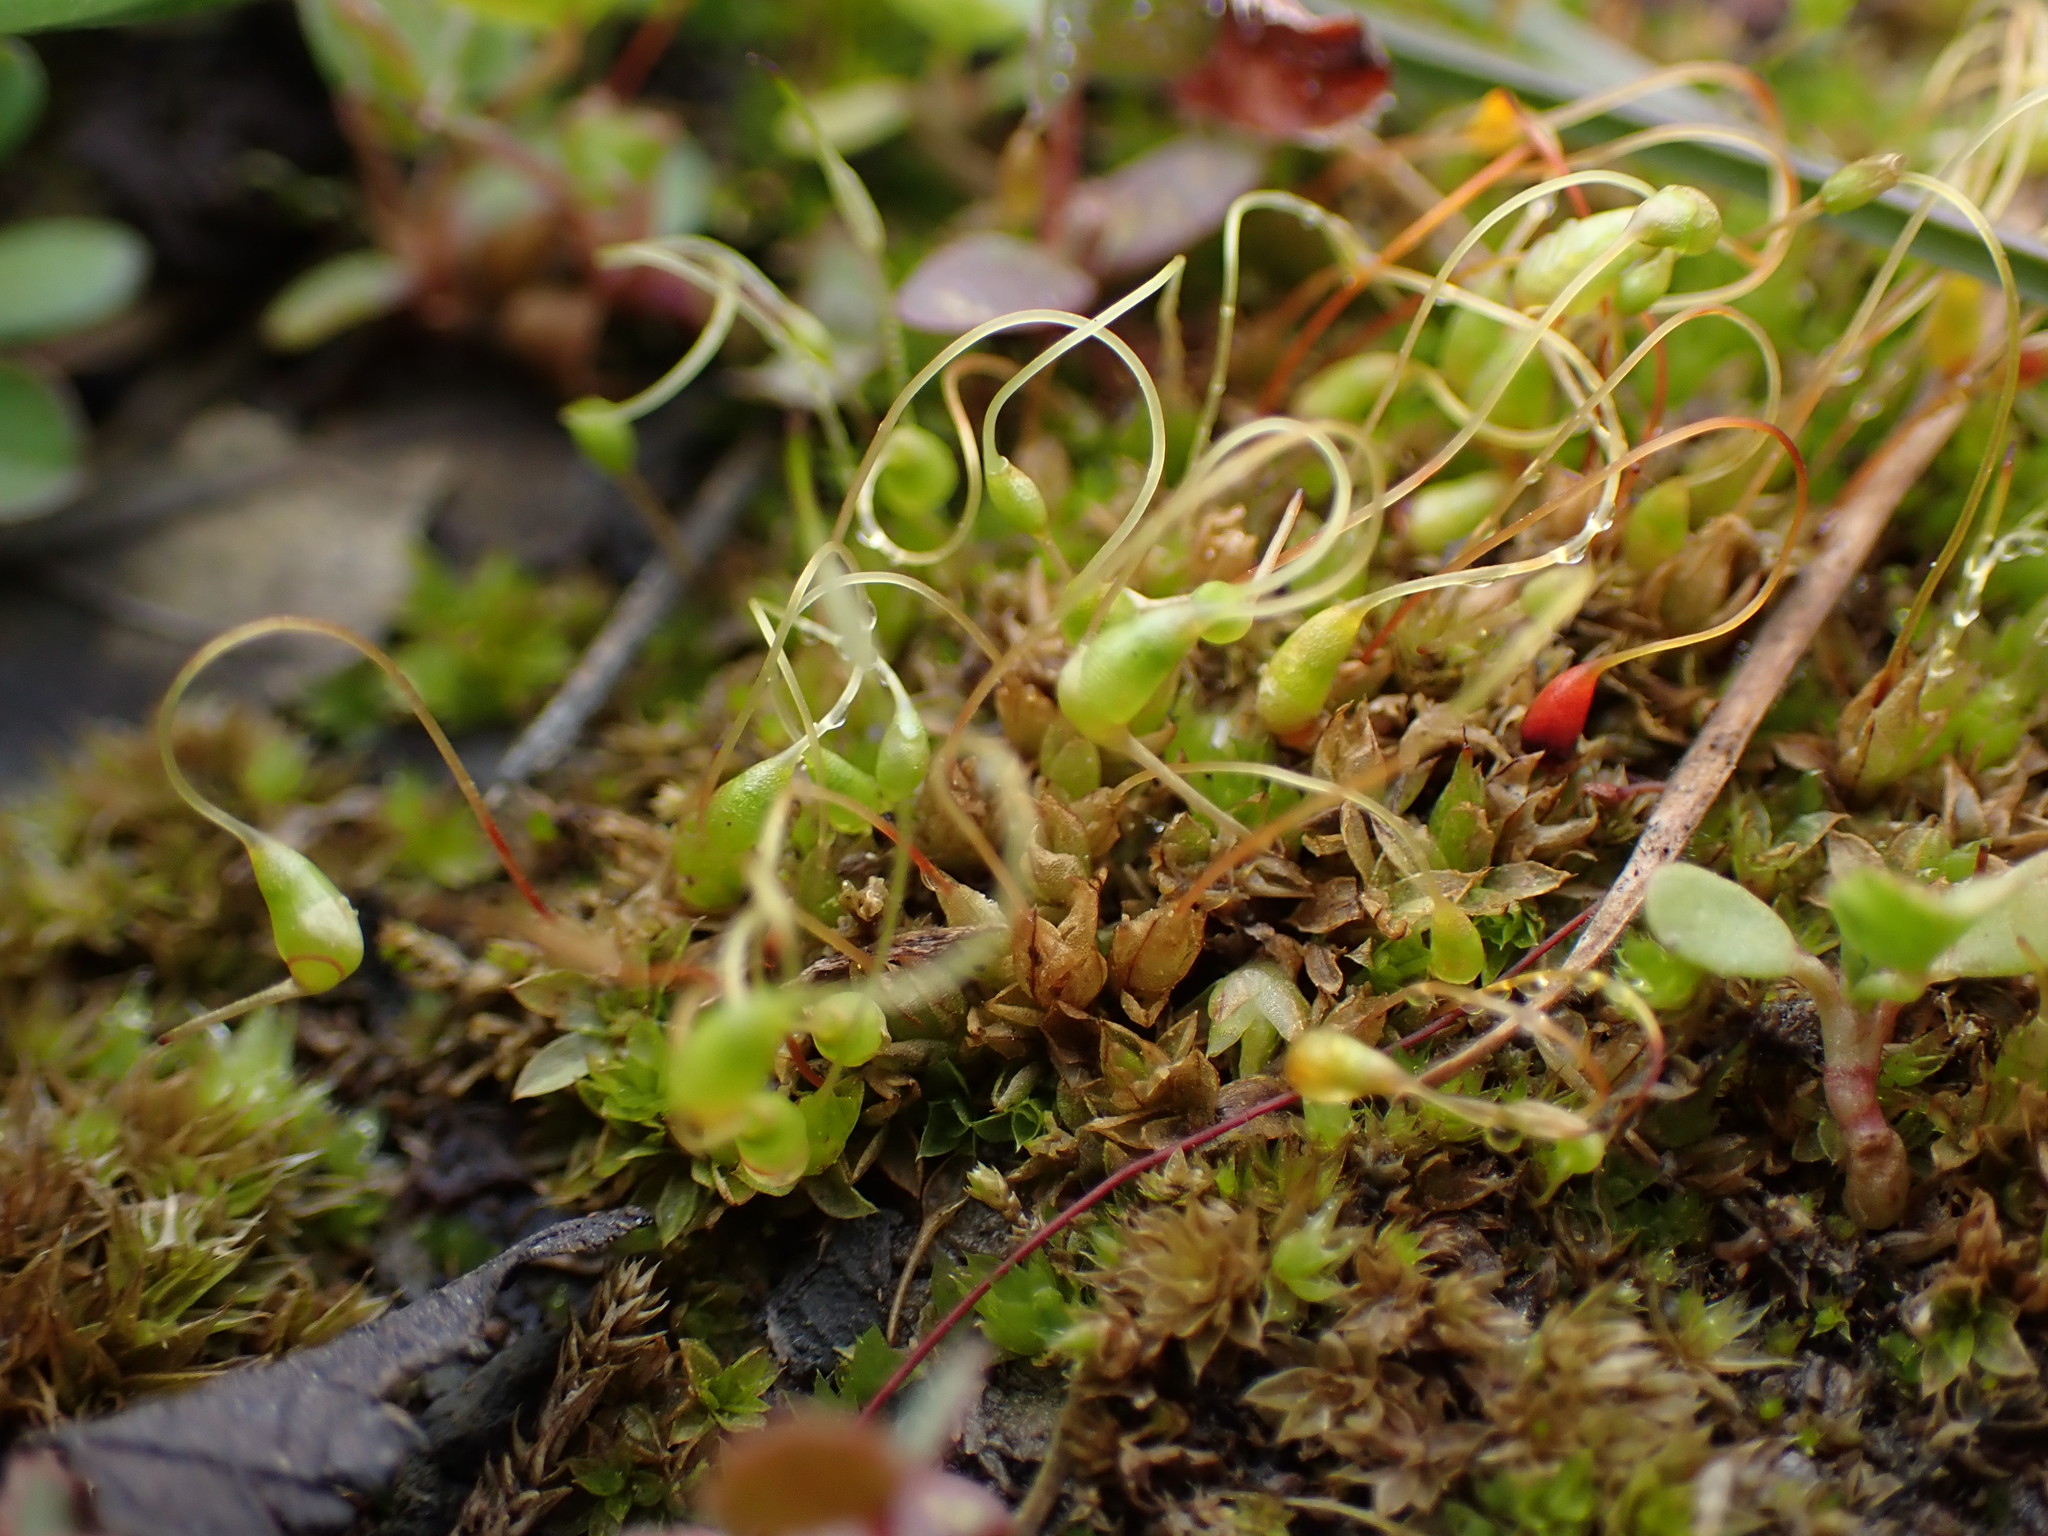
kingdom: Plantae
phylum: Bryophyta
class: Bryopsida
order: Funariales
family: Funariaceae
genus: Funaria
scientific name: Funaria hygrometrica
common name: Common cord moss
